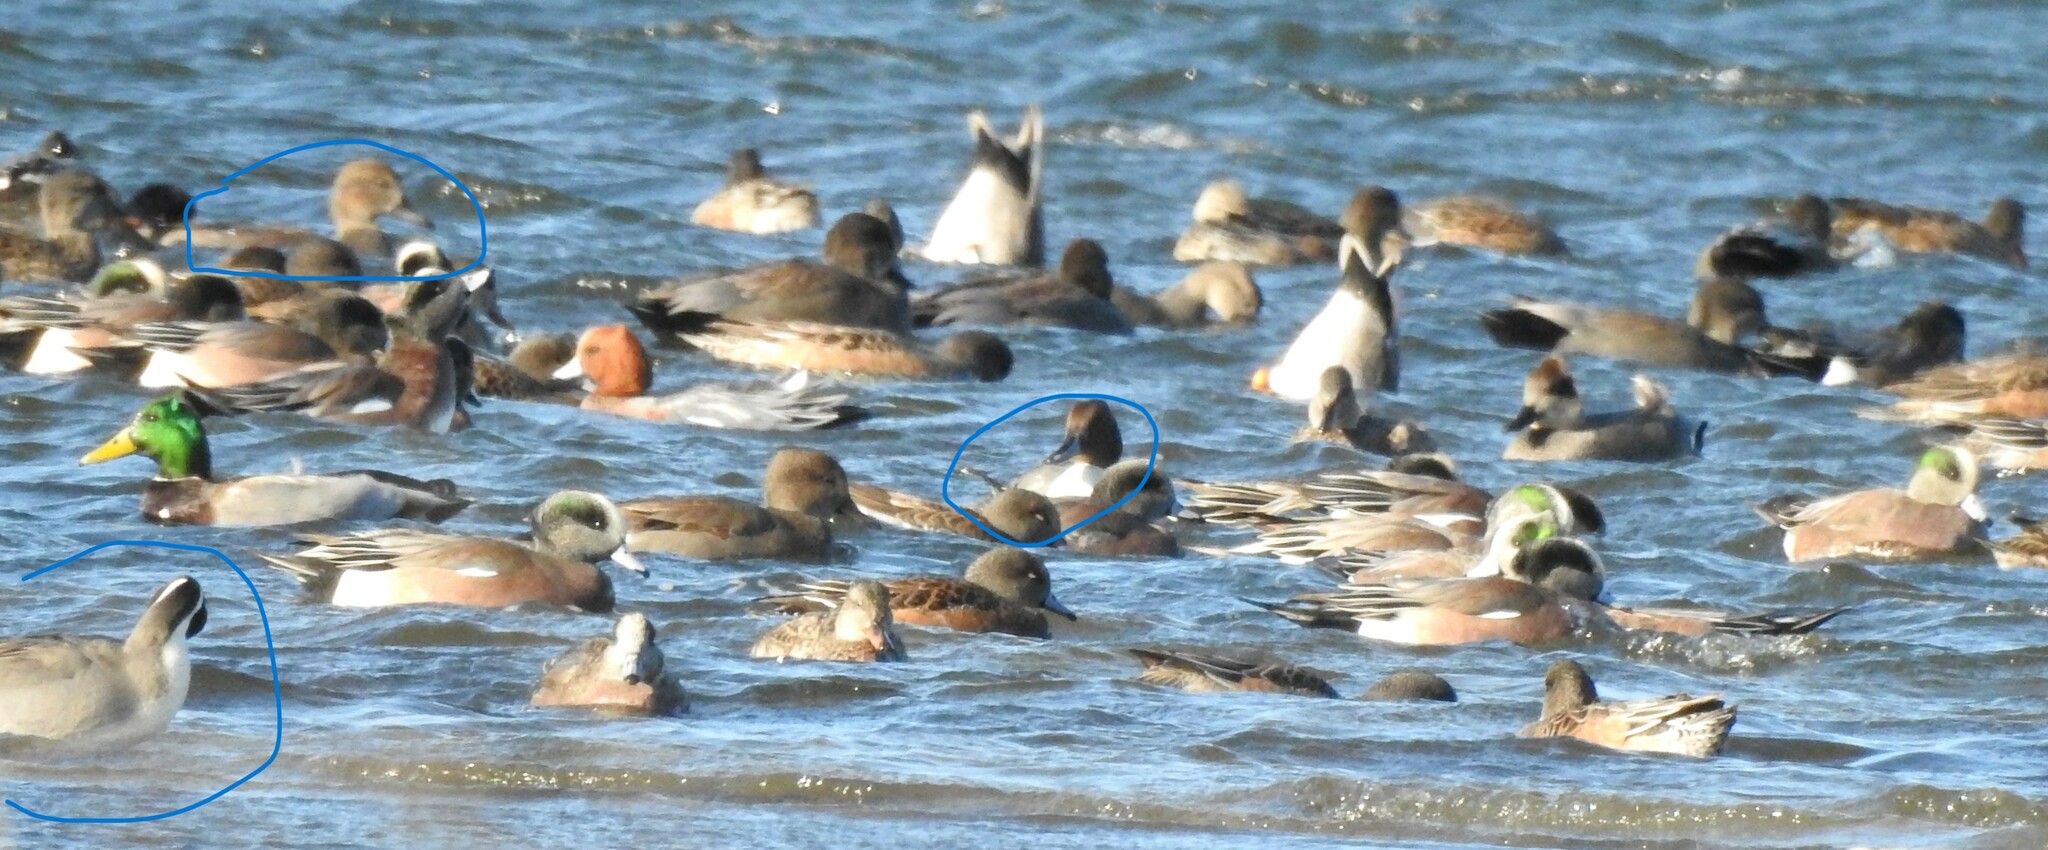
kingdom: Animalia
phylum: Chordata
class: Aves
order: Anseriformes
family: Anatidae
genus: Anas
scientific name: Anas acuta
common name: Northern pintail
